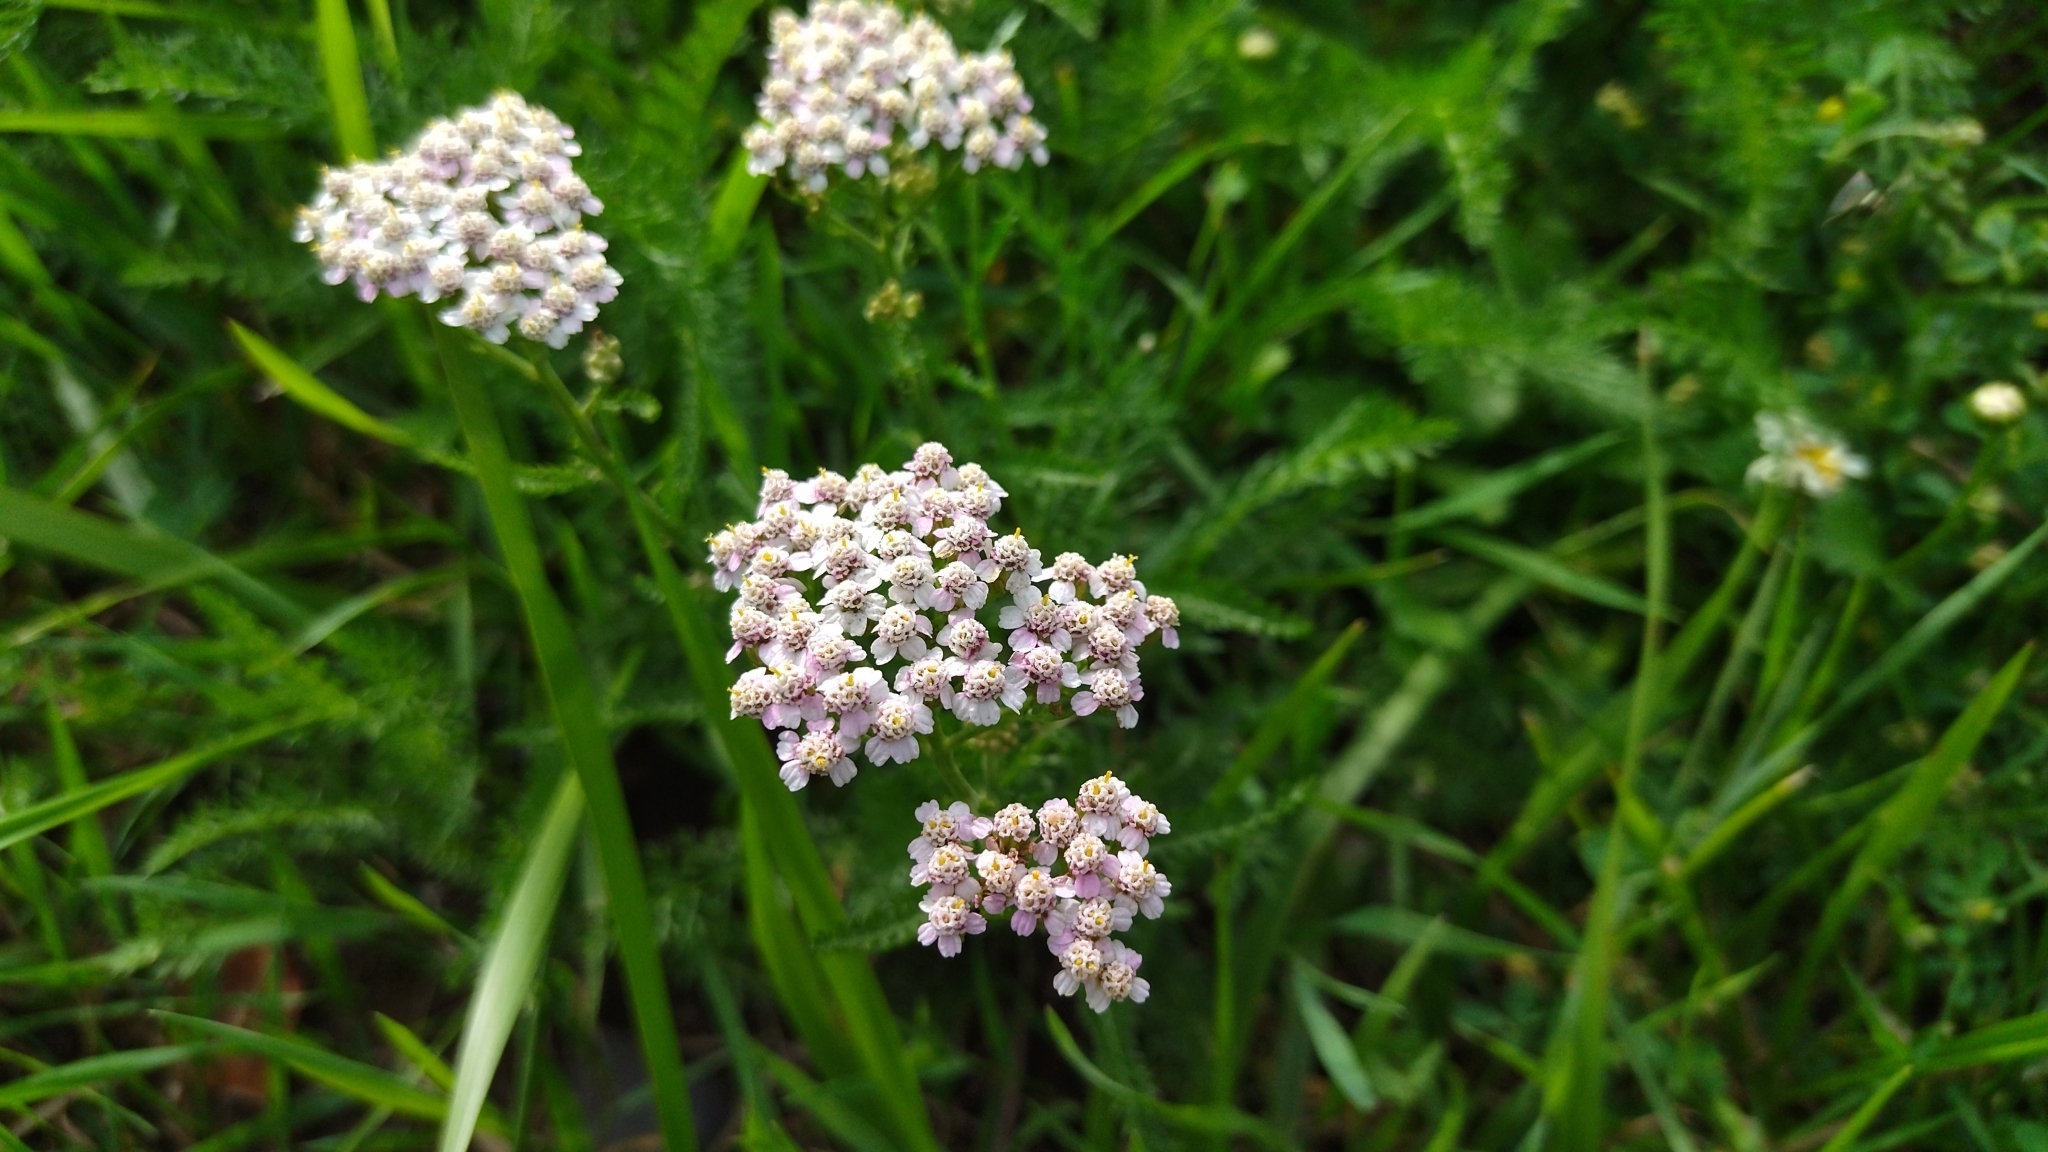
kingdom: Plantae
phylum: Tracheophyta
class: Magnoliopsida
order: Asterales
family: Asteraceae
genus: Achillea
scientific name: Achillea millefolium
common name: Yarrow
